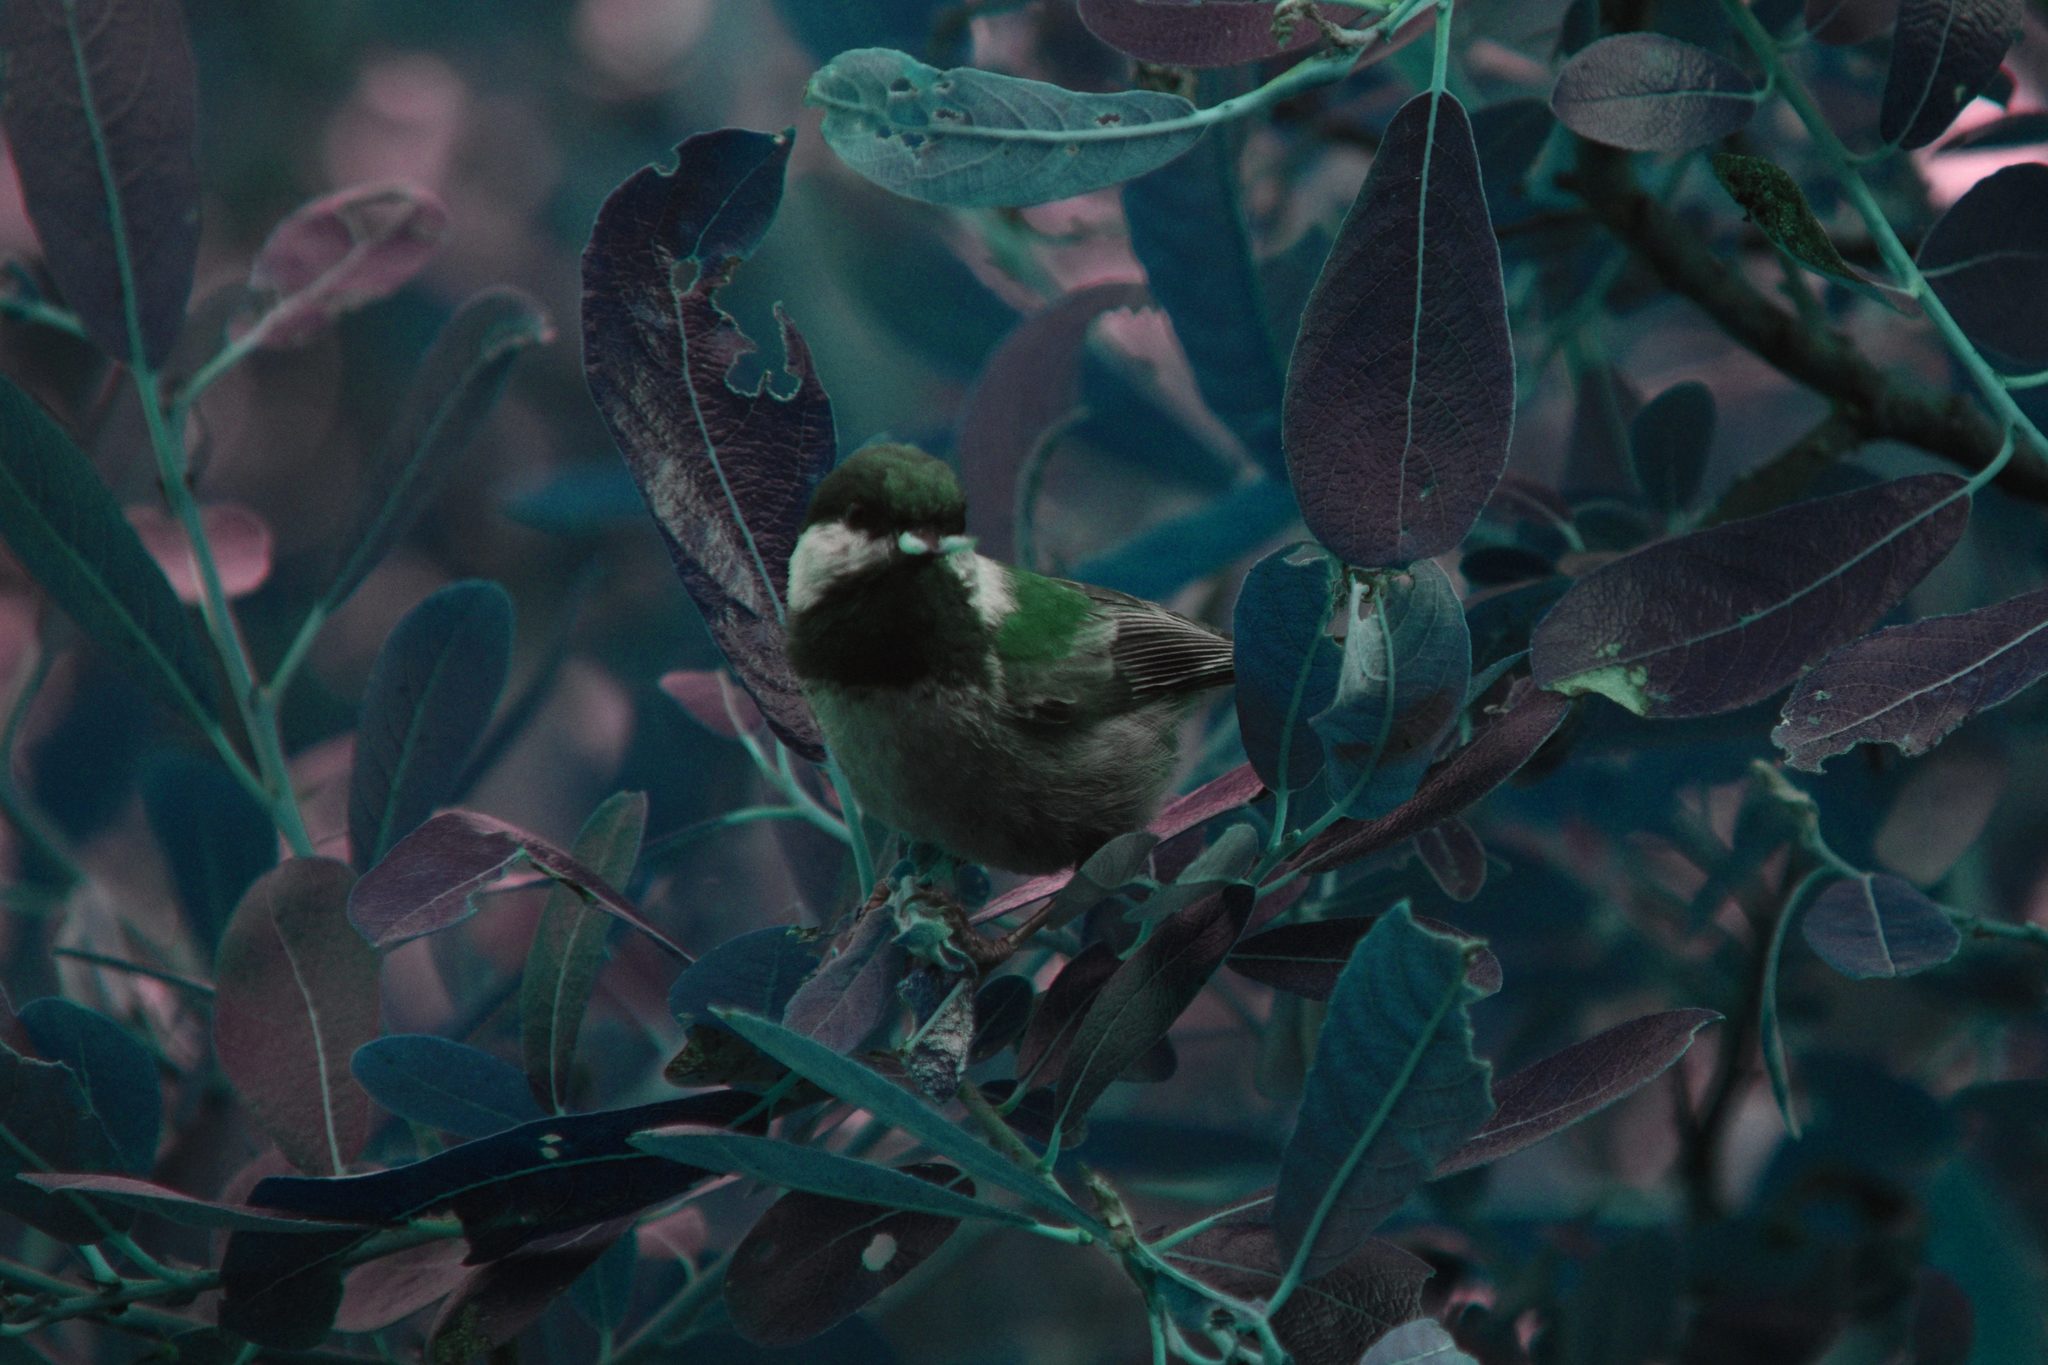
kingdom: Animalia
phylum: Chordata
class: Aves
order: Passeriformes
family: Paridae
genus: Poecile
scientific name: Poecile rufescens
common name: Chestnut-backed chickadee
